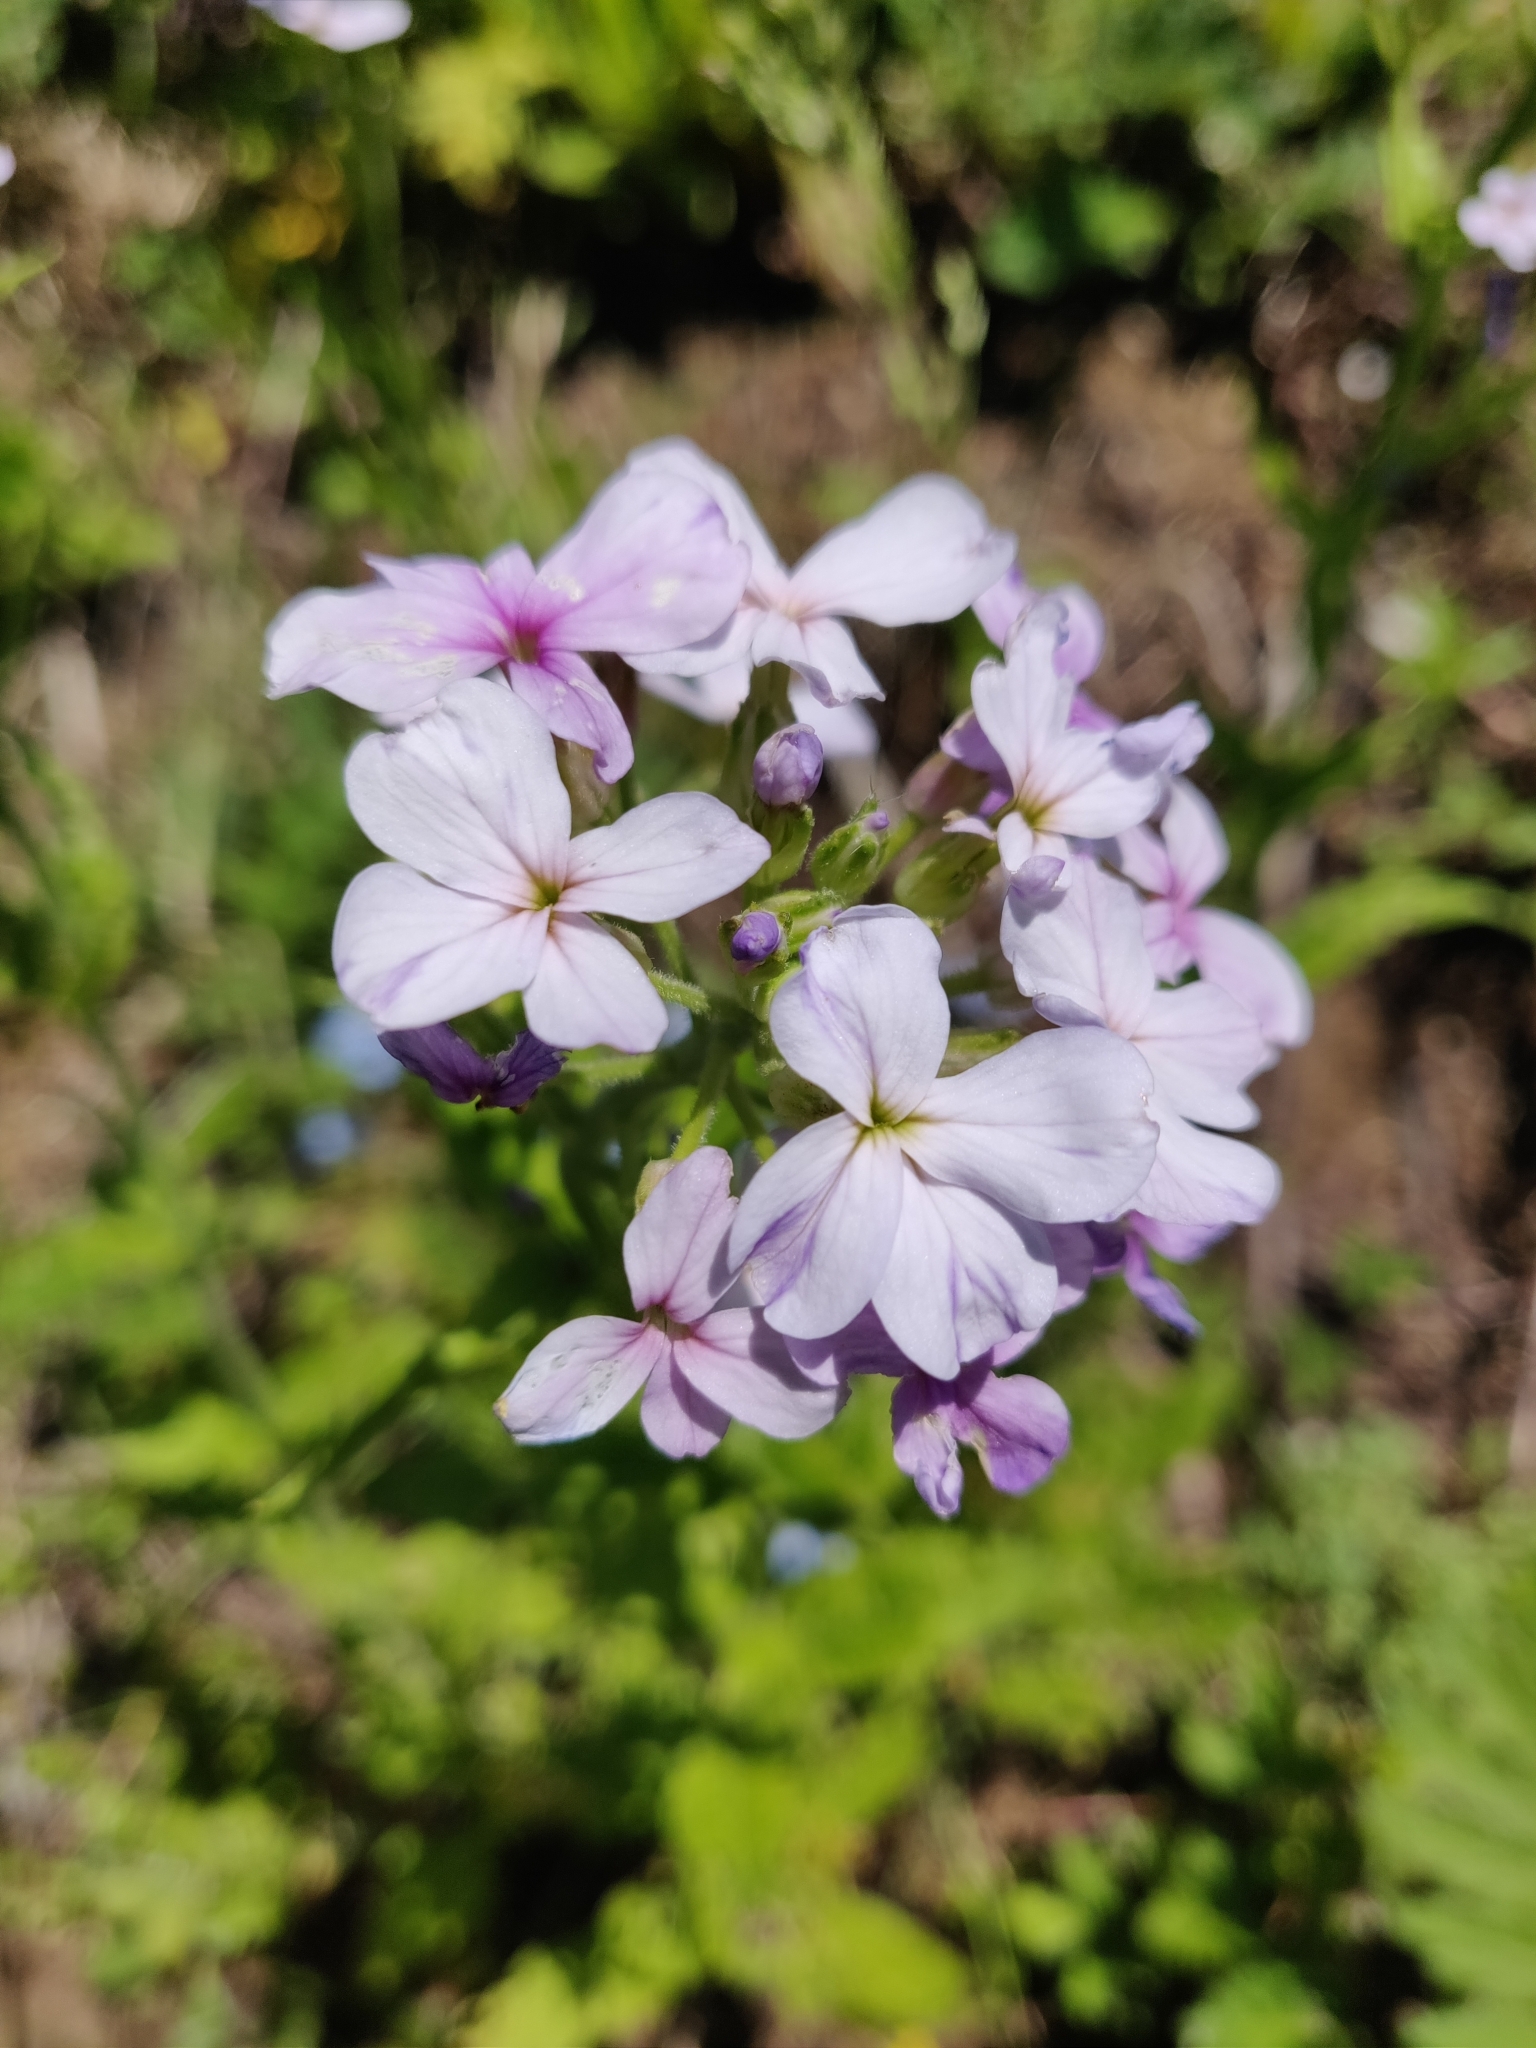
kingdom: Plantae
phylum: Tracheophyta
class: Magnoliopsida
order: Brassicales
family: Brassicaceae
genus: Hesperis
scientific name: Hesperis matronalis
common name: Dame's-violet
